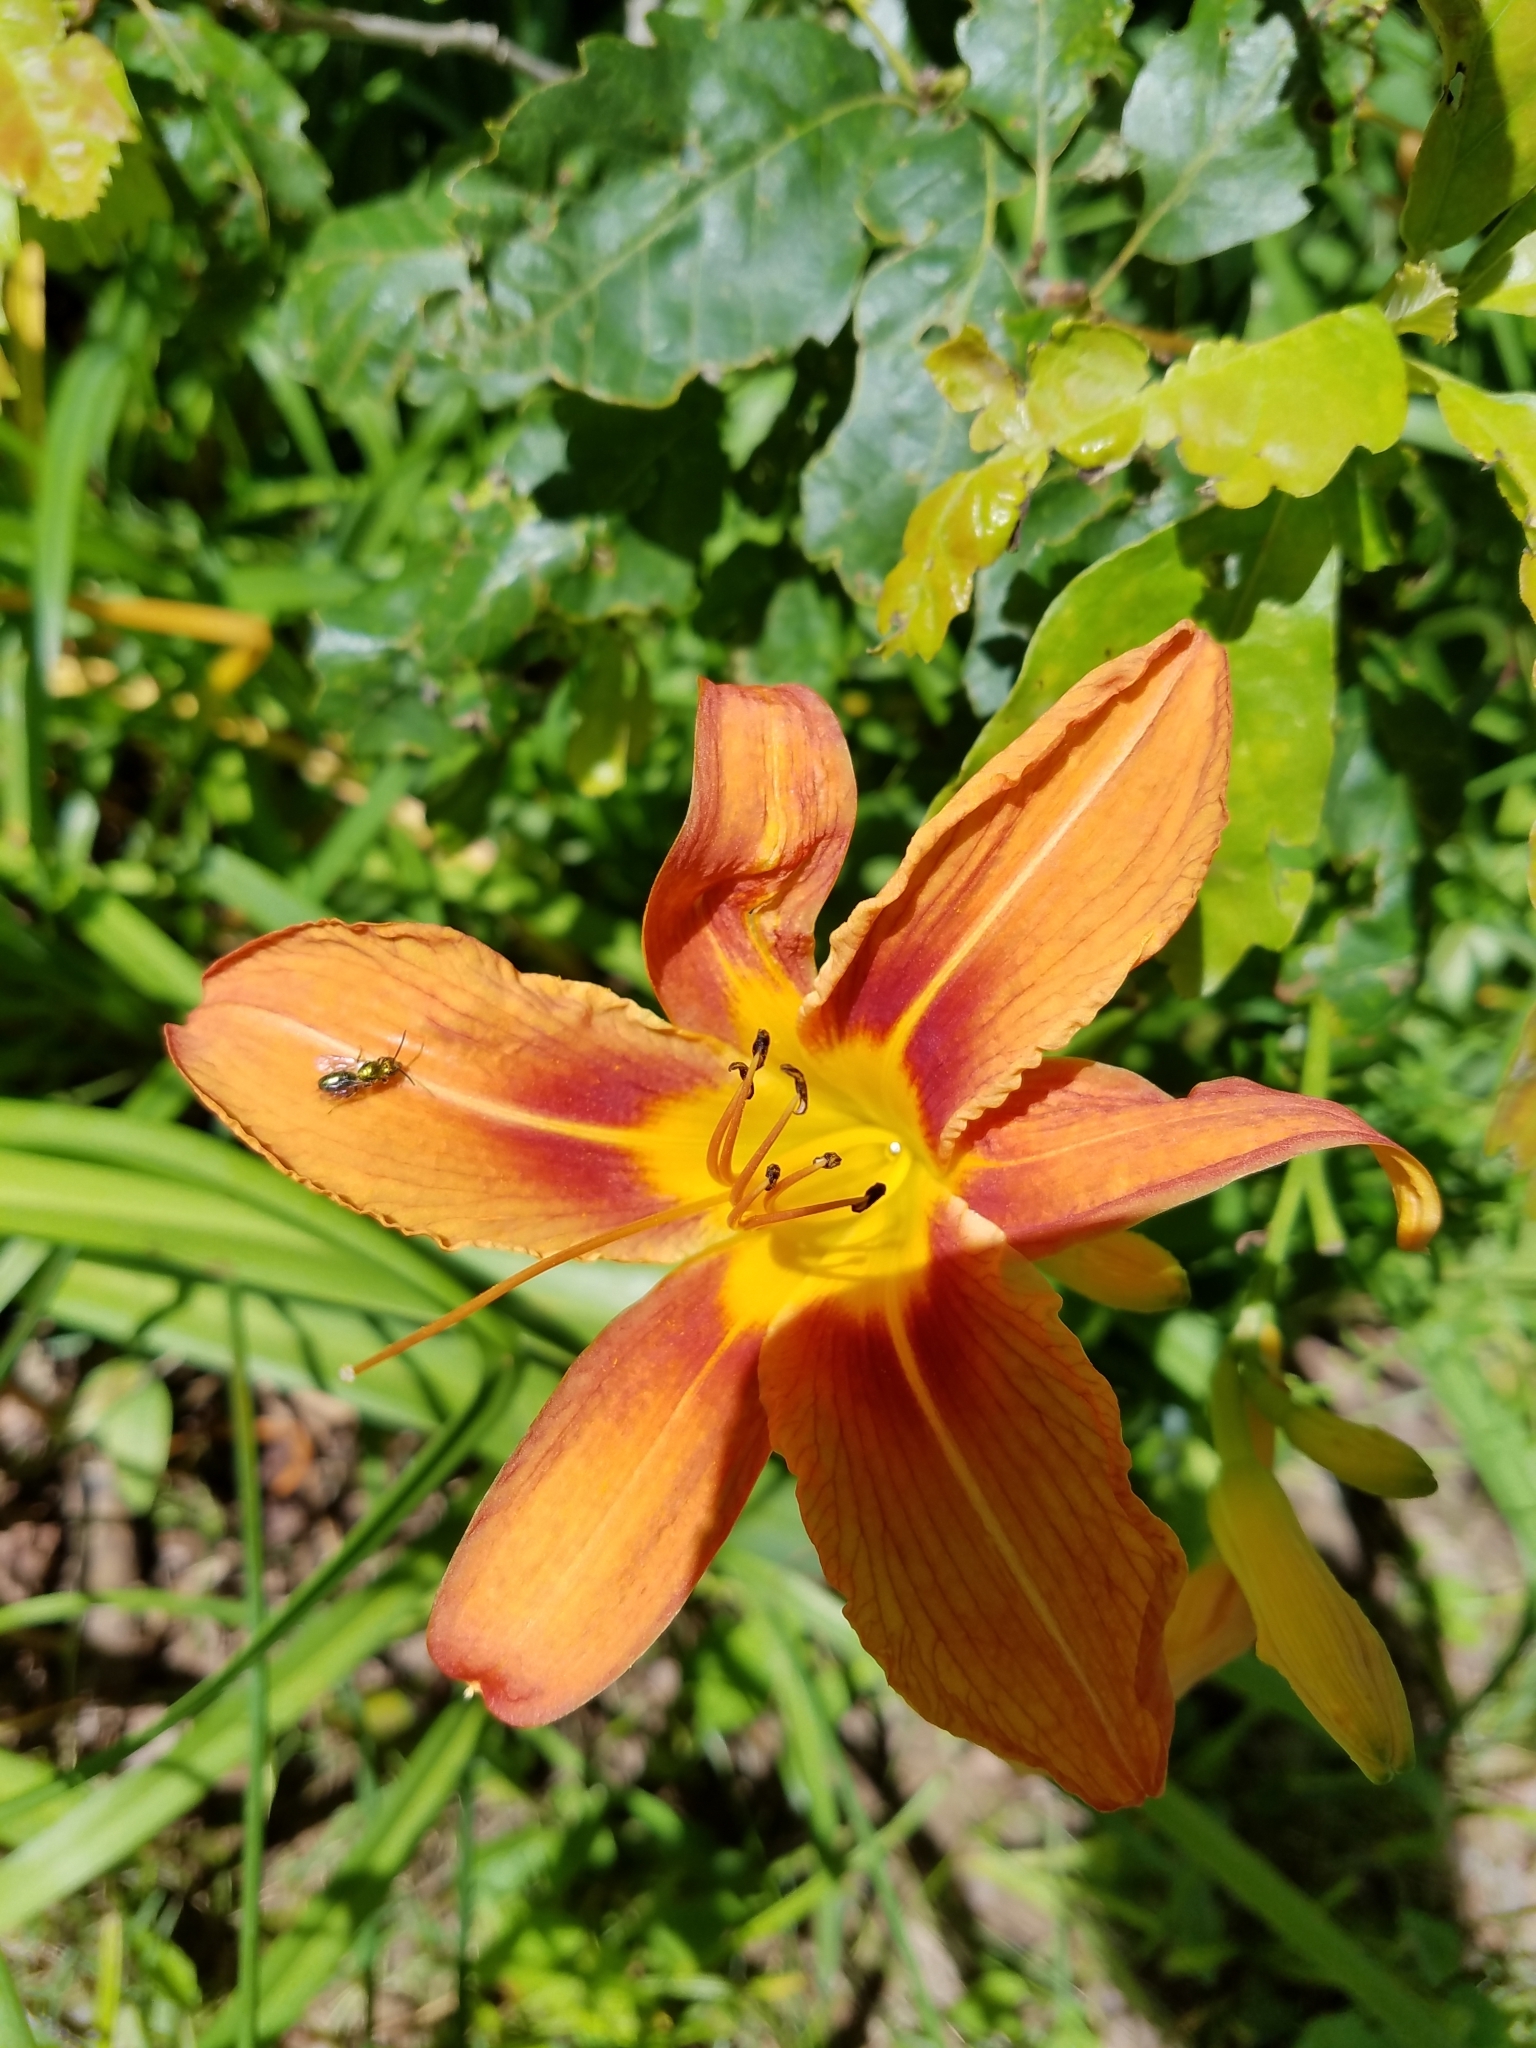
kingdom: Plantae
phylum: Tracheophyta
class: Liliopsida
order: Asparagales
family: Asphodelaceae
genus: Hemerocallis
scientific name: Hemerocallis fulva
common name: Orange day-lily
